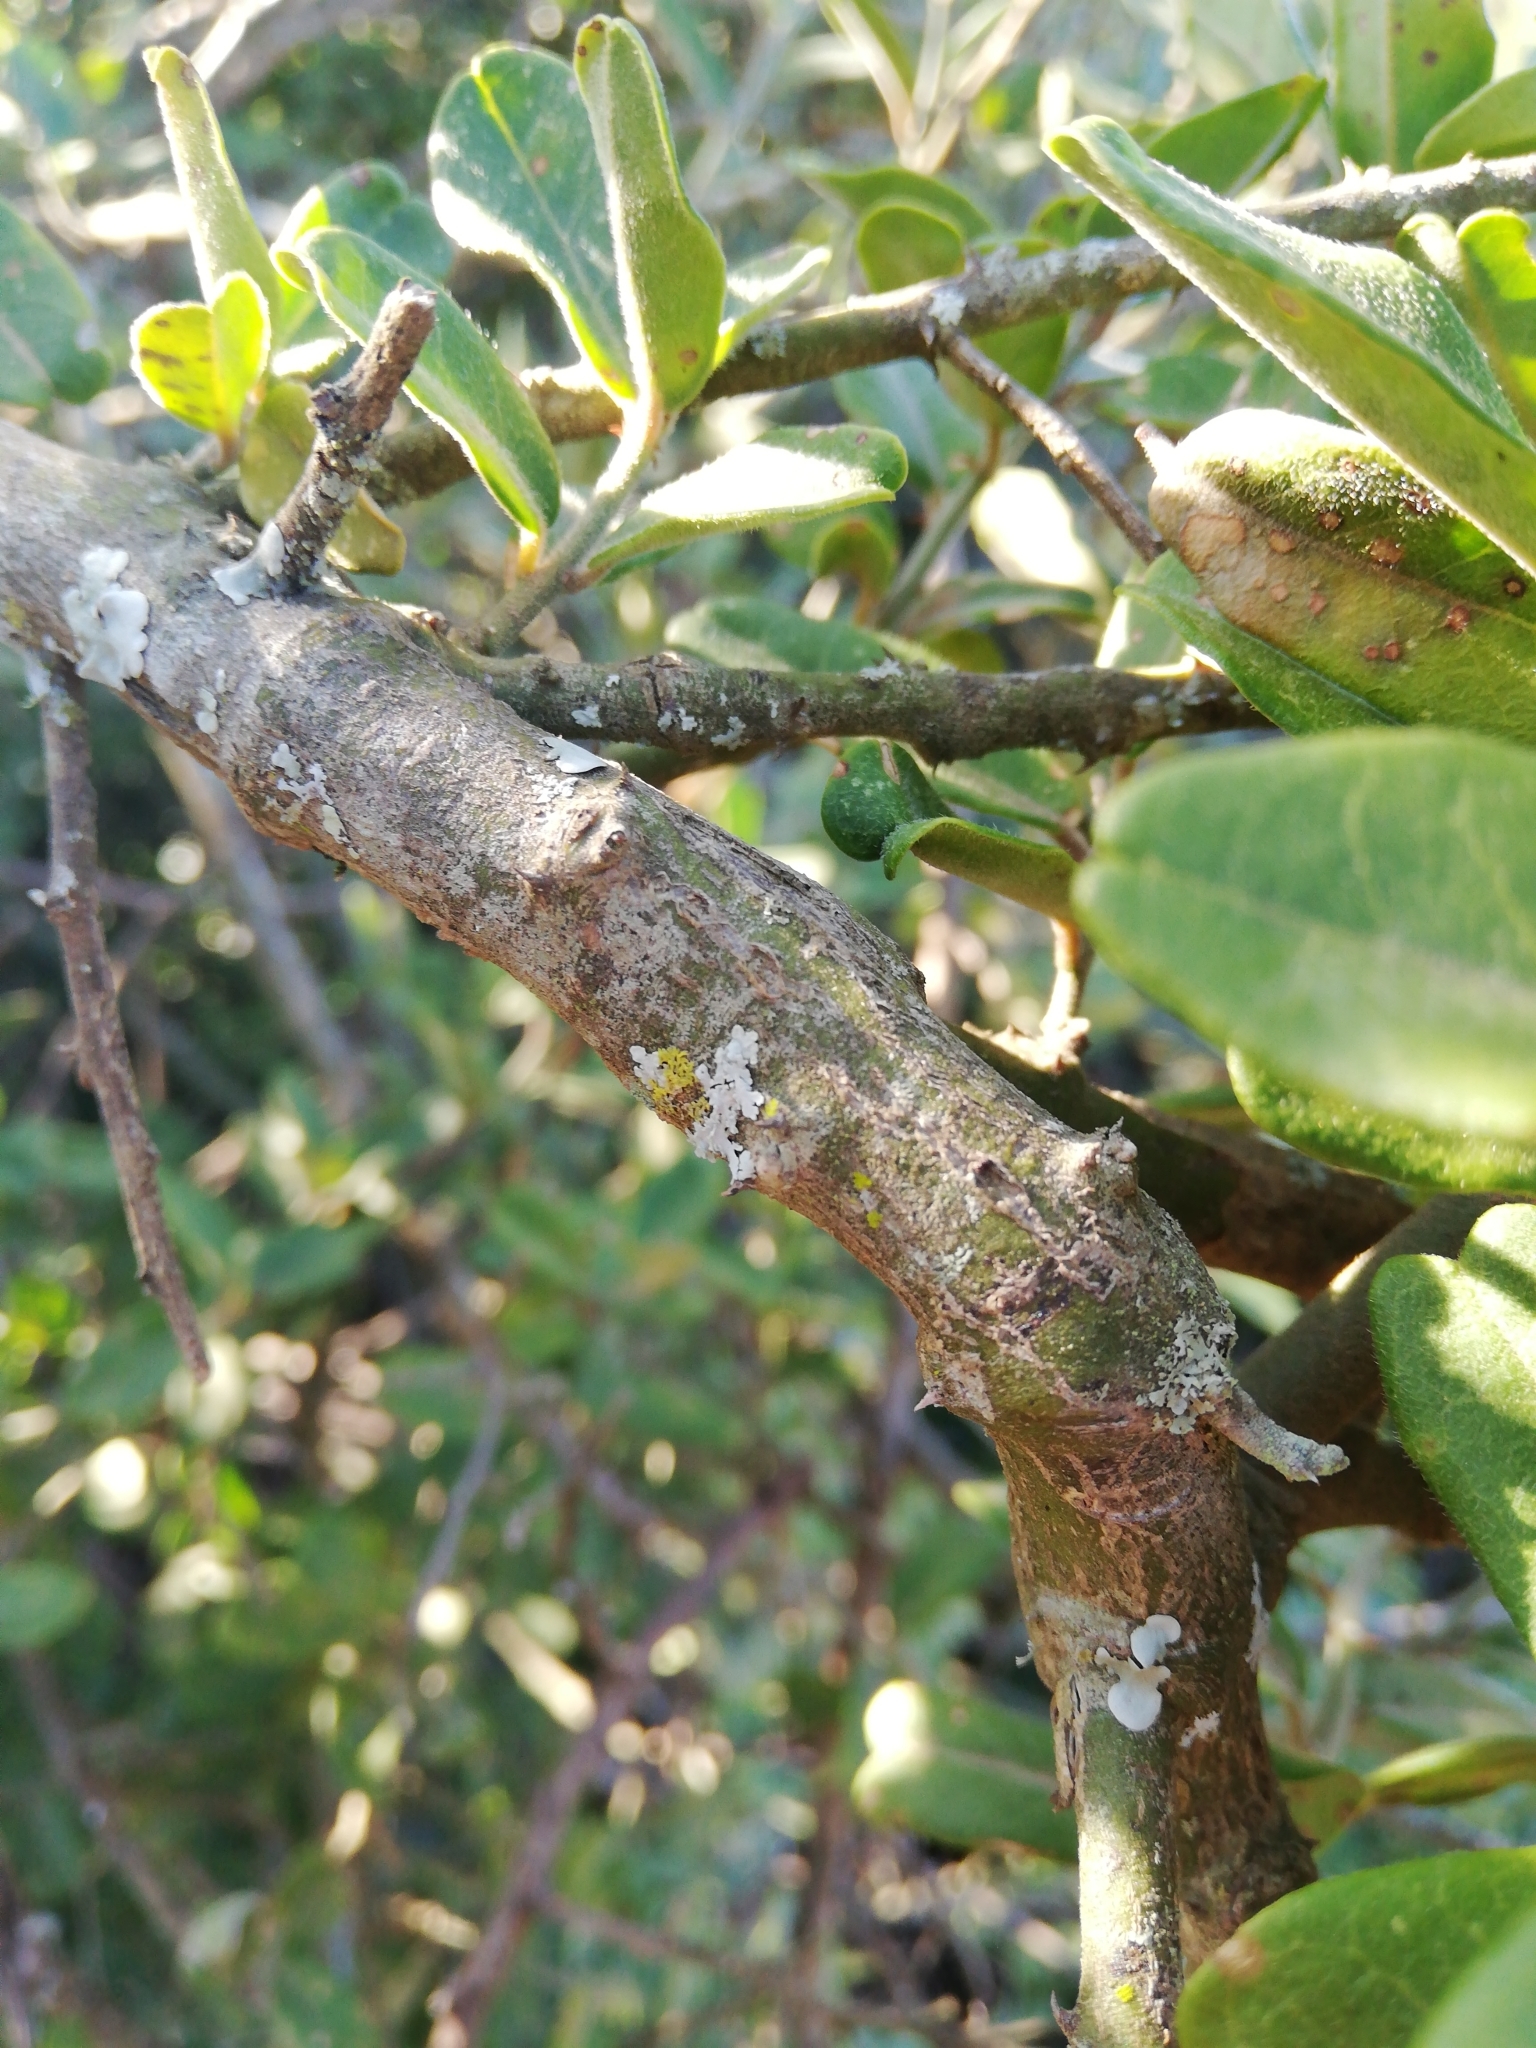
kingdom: Plantae
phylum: Tracheophyta
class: Magnoliopsida
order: Brassicales
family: Capparaceae
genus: Capparis
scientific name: Capparis sepiaria
